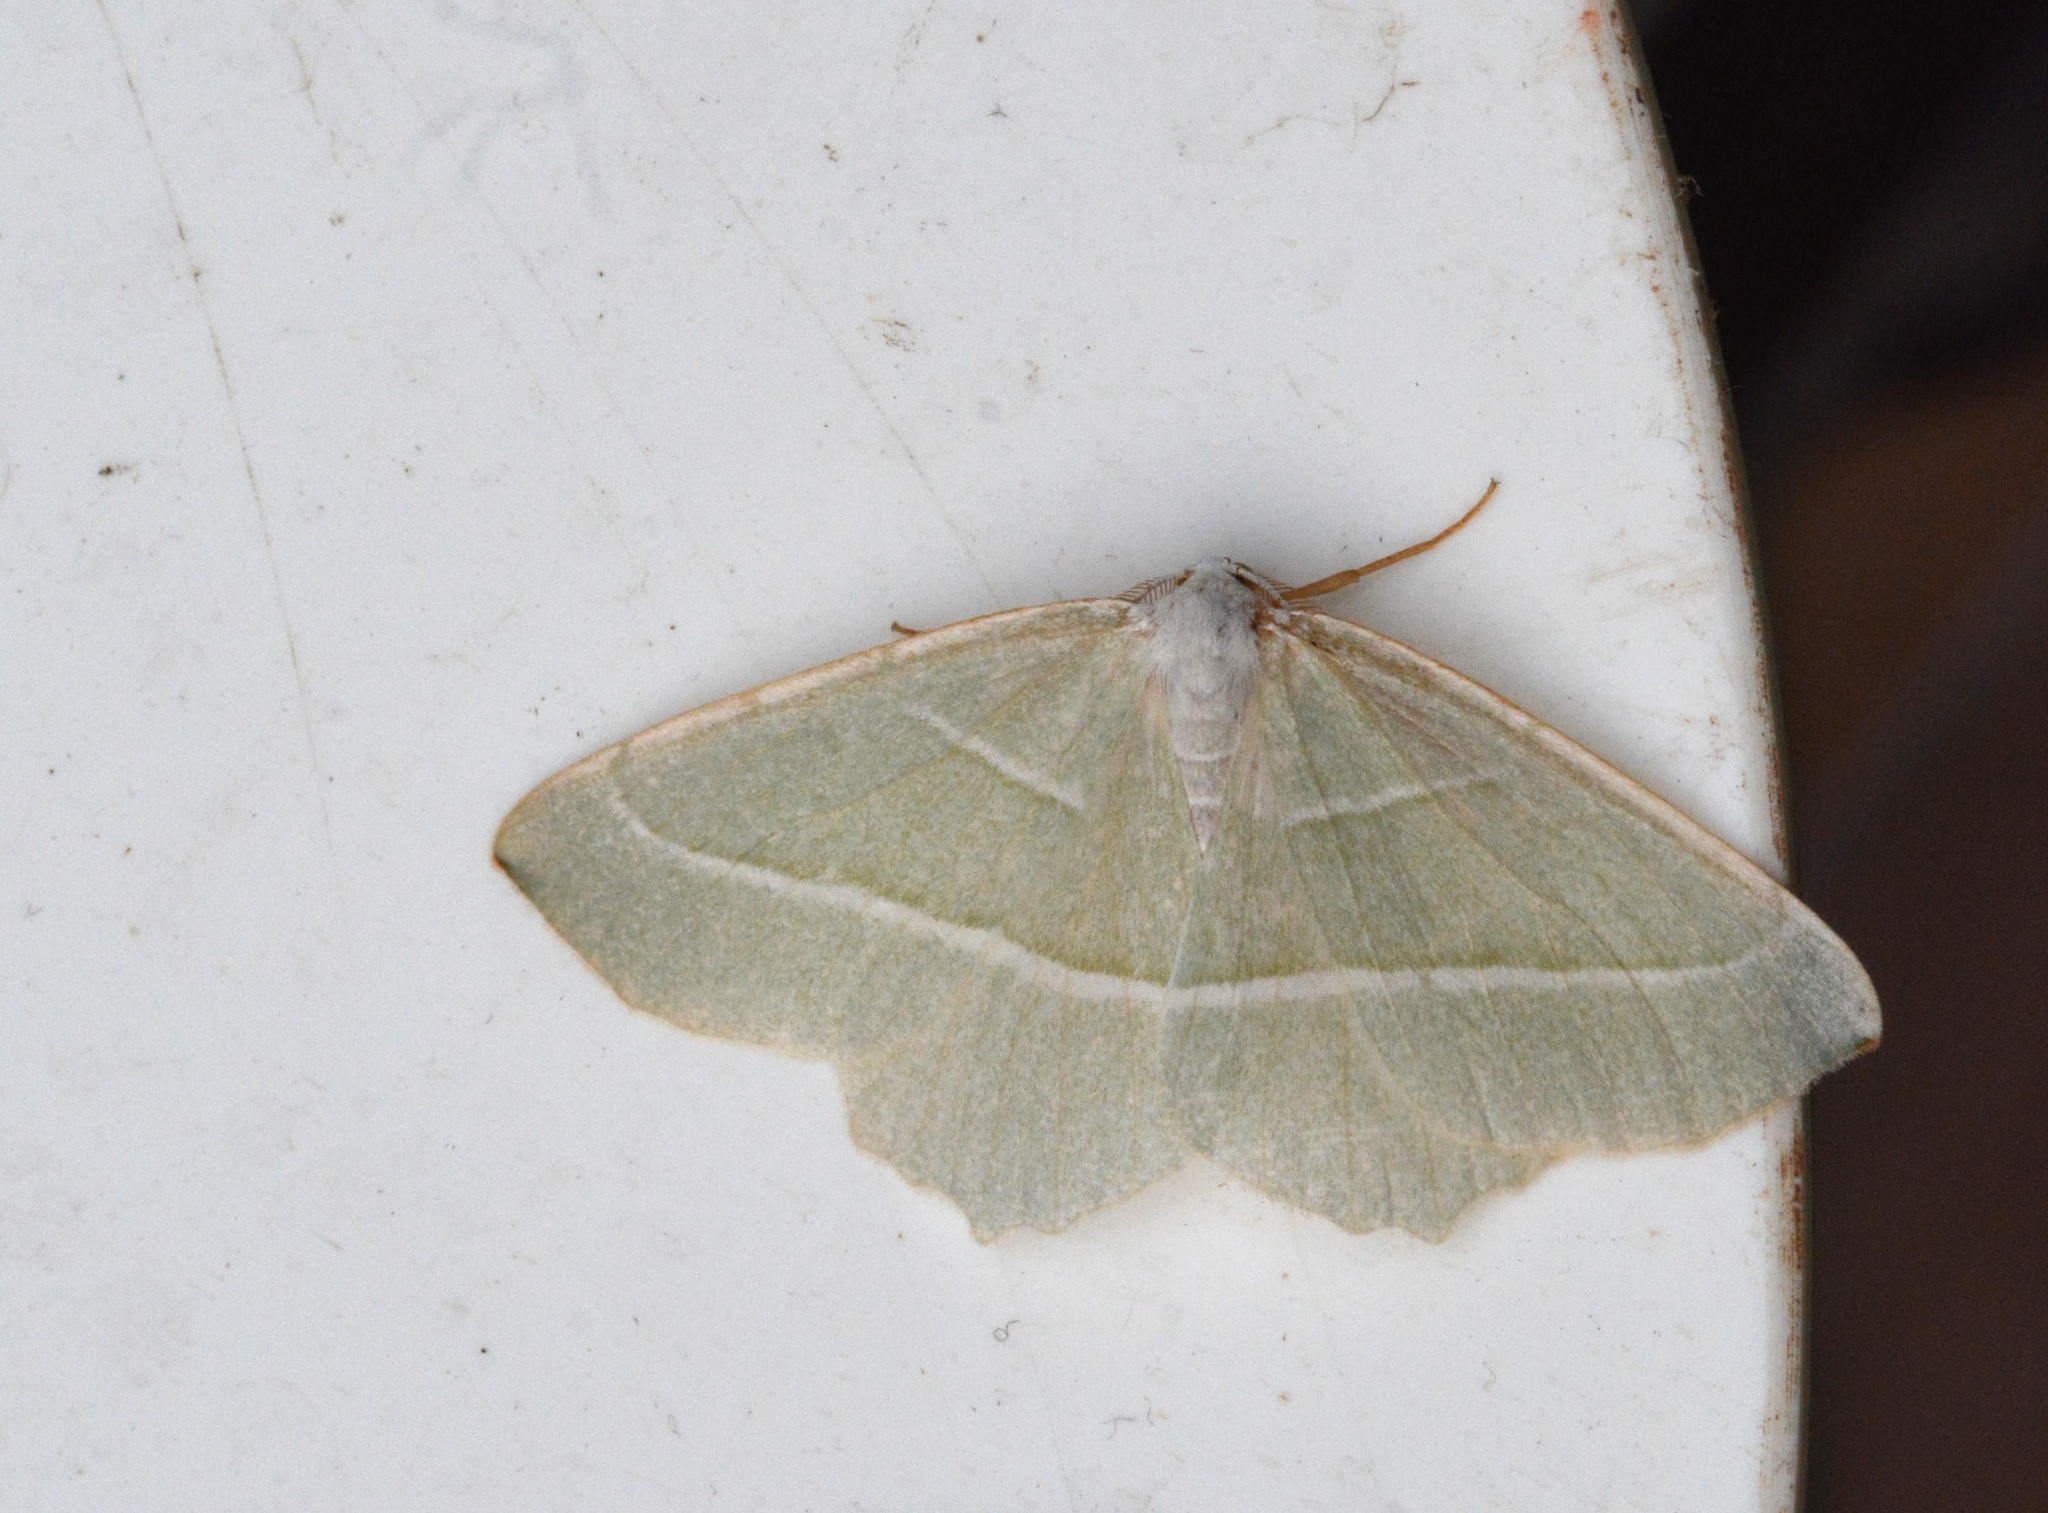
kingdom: Animalia
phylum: Arthropoda
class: Insecta
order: Lepidoptera
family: Geometridae
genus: Campaea
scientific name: Campaea margaritaria
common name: Light emerald
